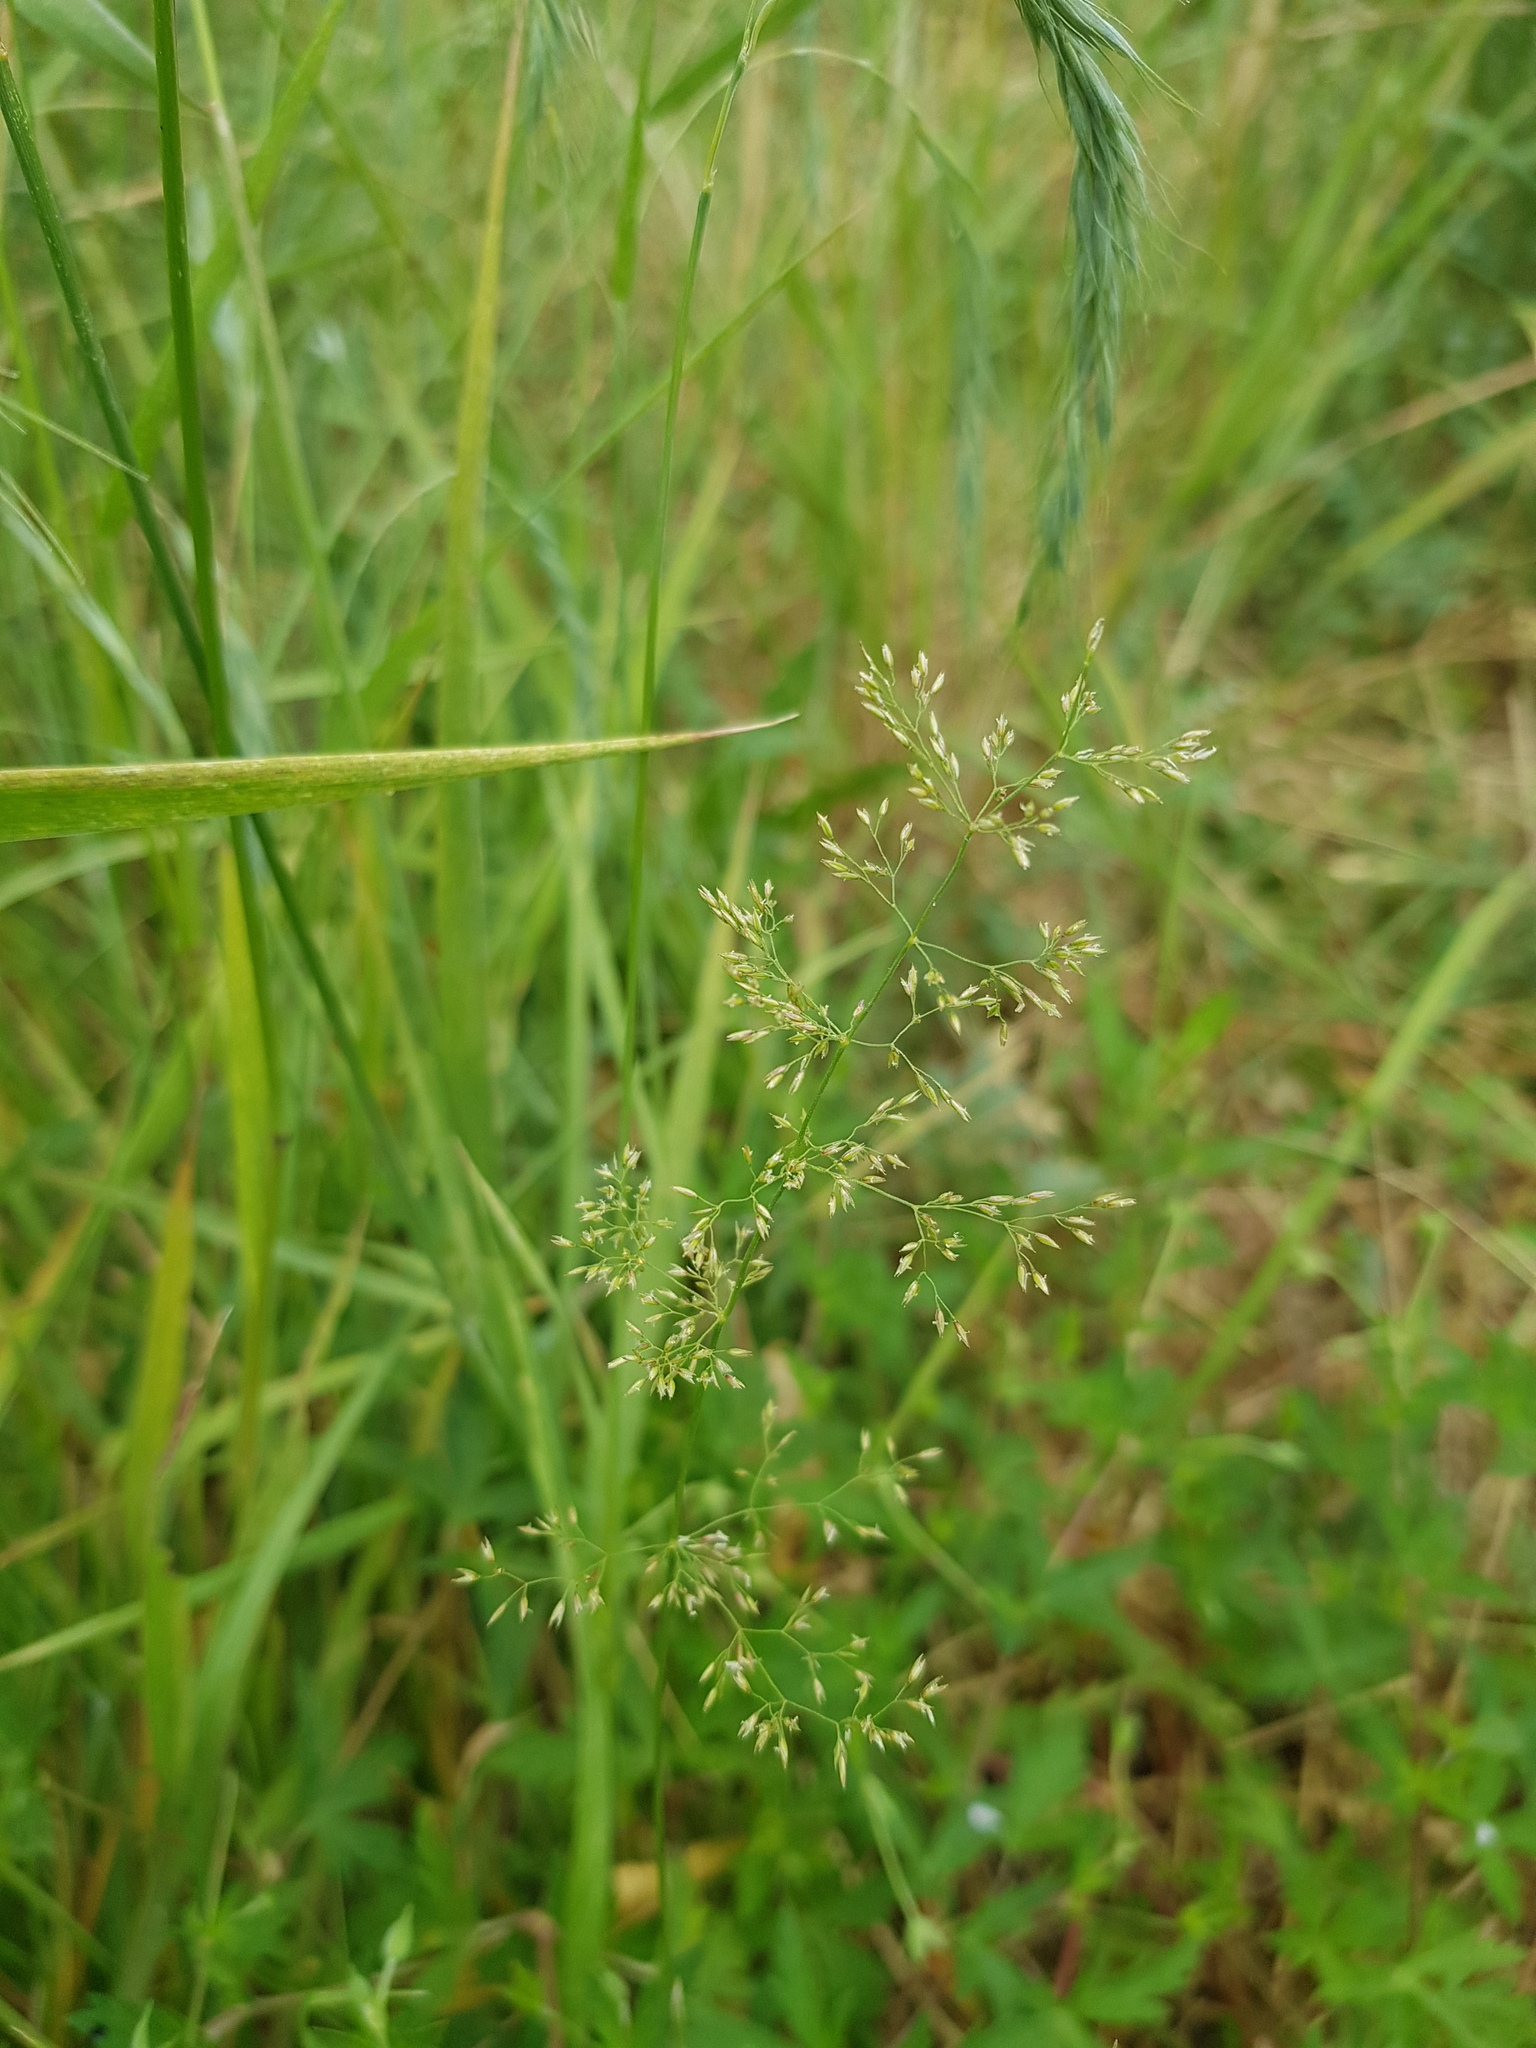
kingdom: Plantae
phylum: Tracheophyta
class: Liliopsida
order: Poales
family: Poaceae
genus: Poa
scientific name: Poa attenuata
